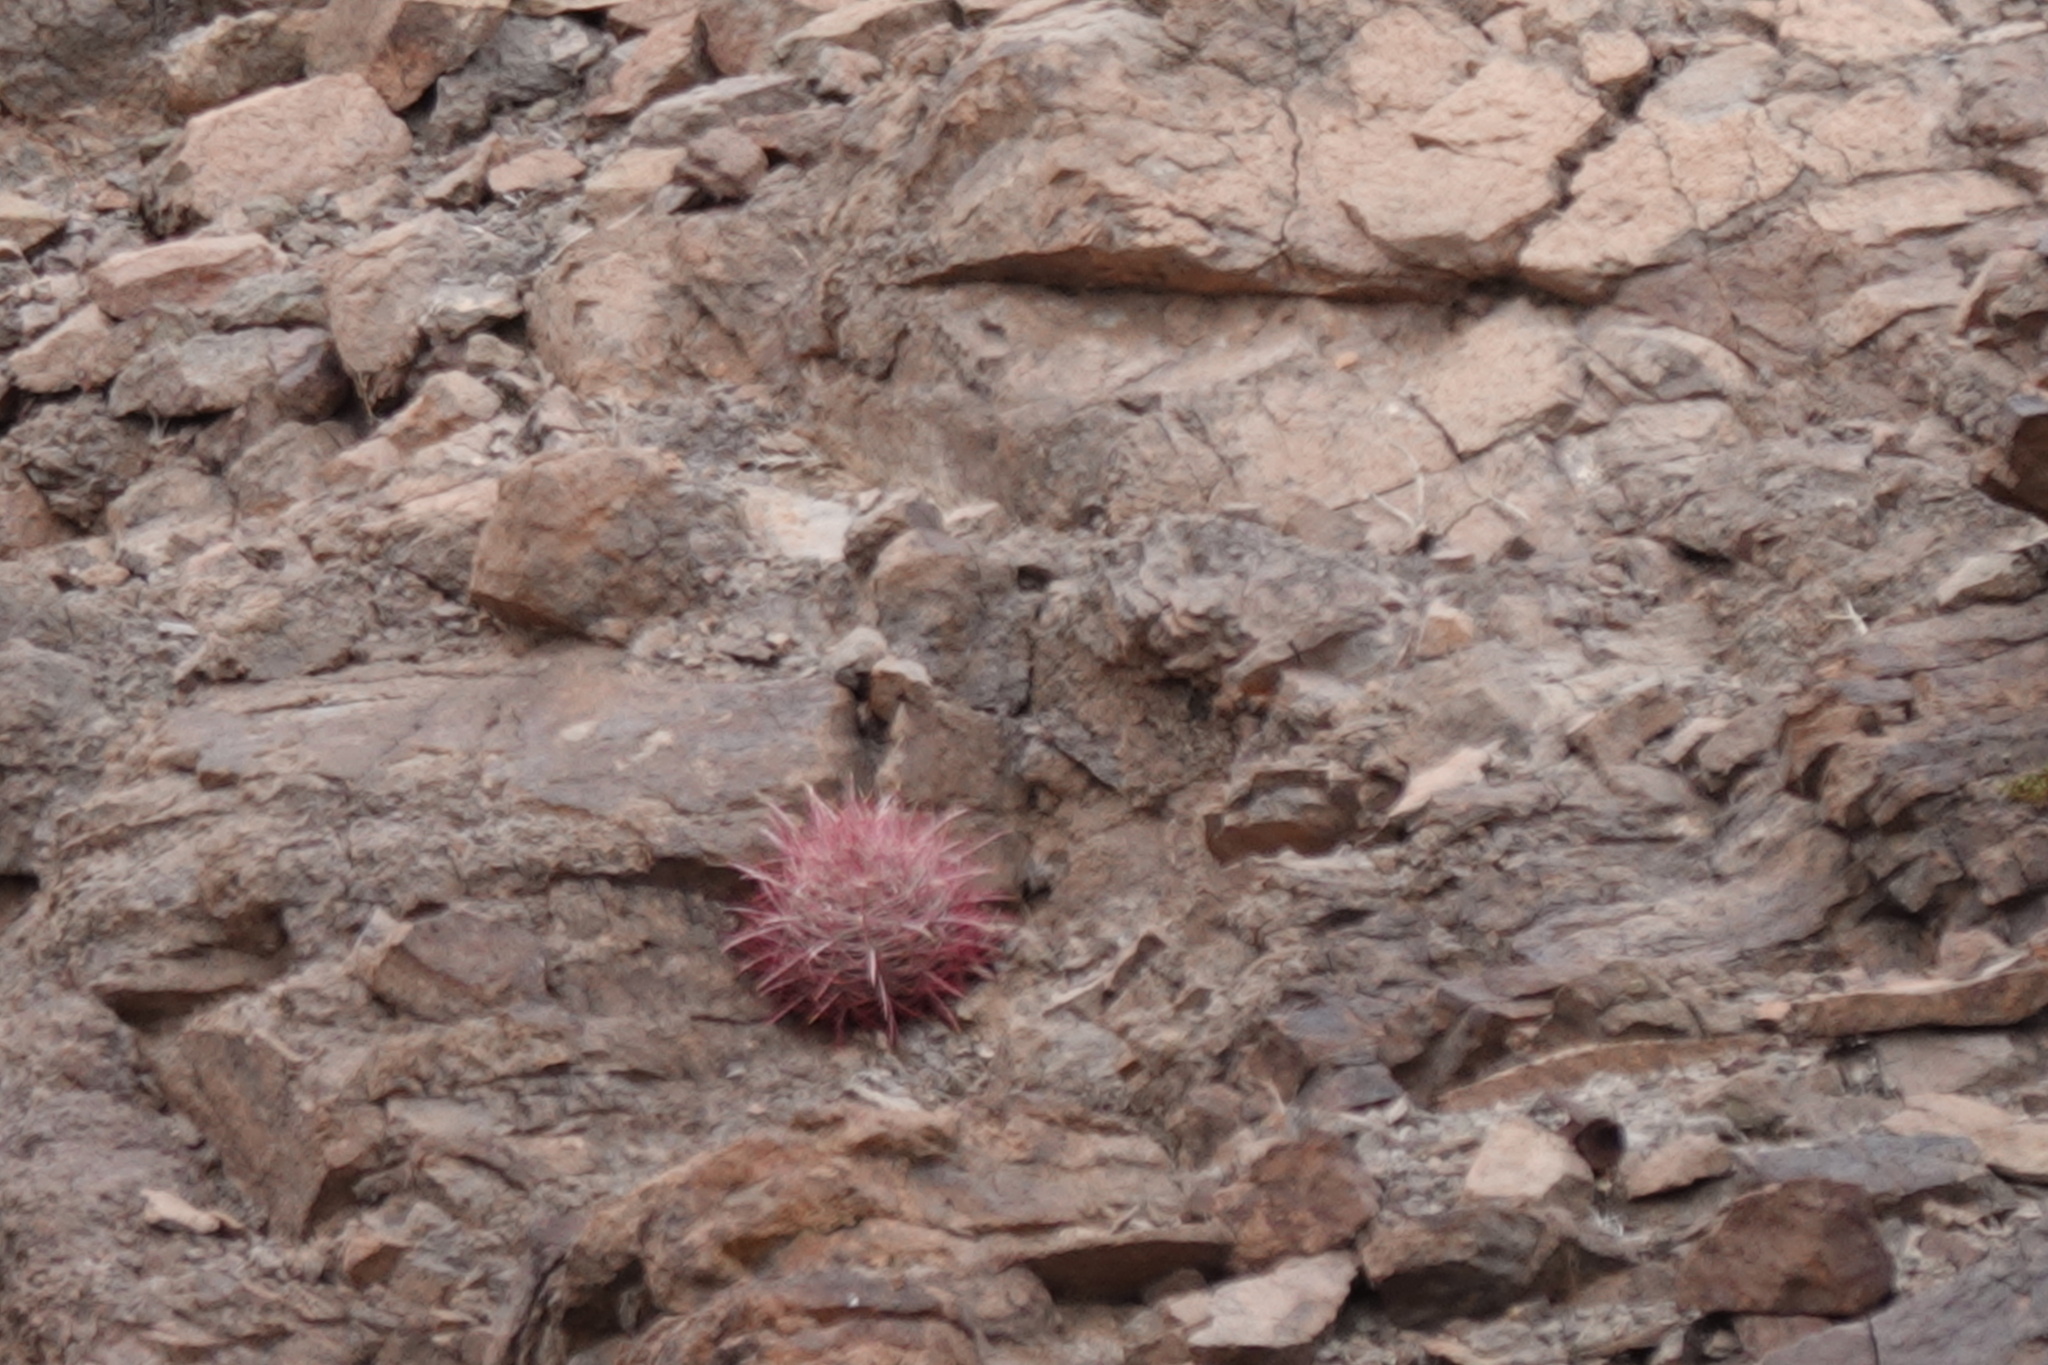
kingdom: Plantae
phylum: Tracheophyta
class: Magnoliopsida
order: Caryophyllales
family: Cactaceae
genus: Ferocactus
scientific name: Ferocactus cylindraceus
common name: California barrel cactus
